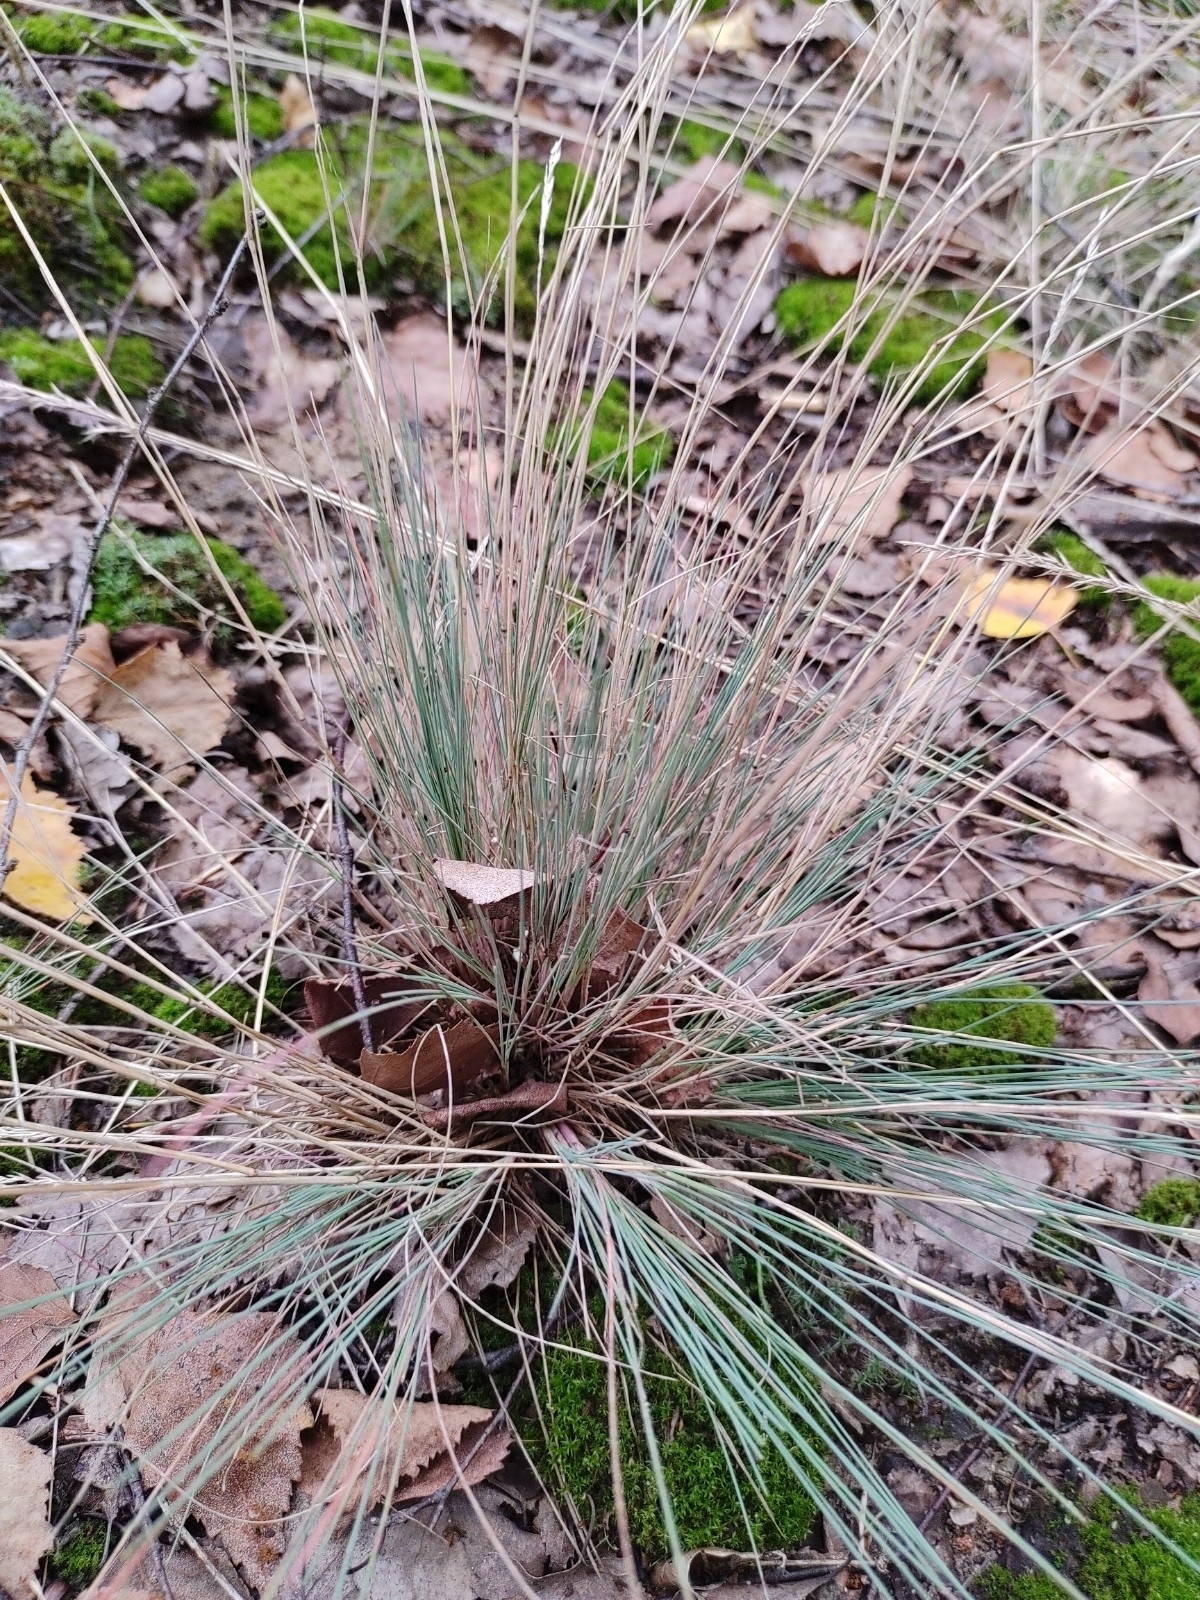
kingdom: Plantae
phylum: Tracheophyta
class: Liliopsida
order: Poales
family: Poaceae
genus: Corynephorus
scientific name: Corynephorus canescens
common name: Grey hair-grass
